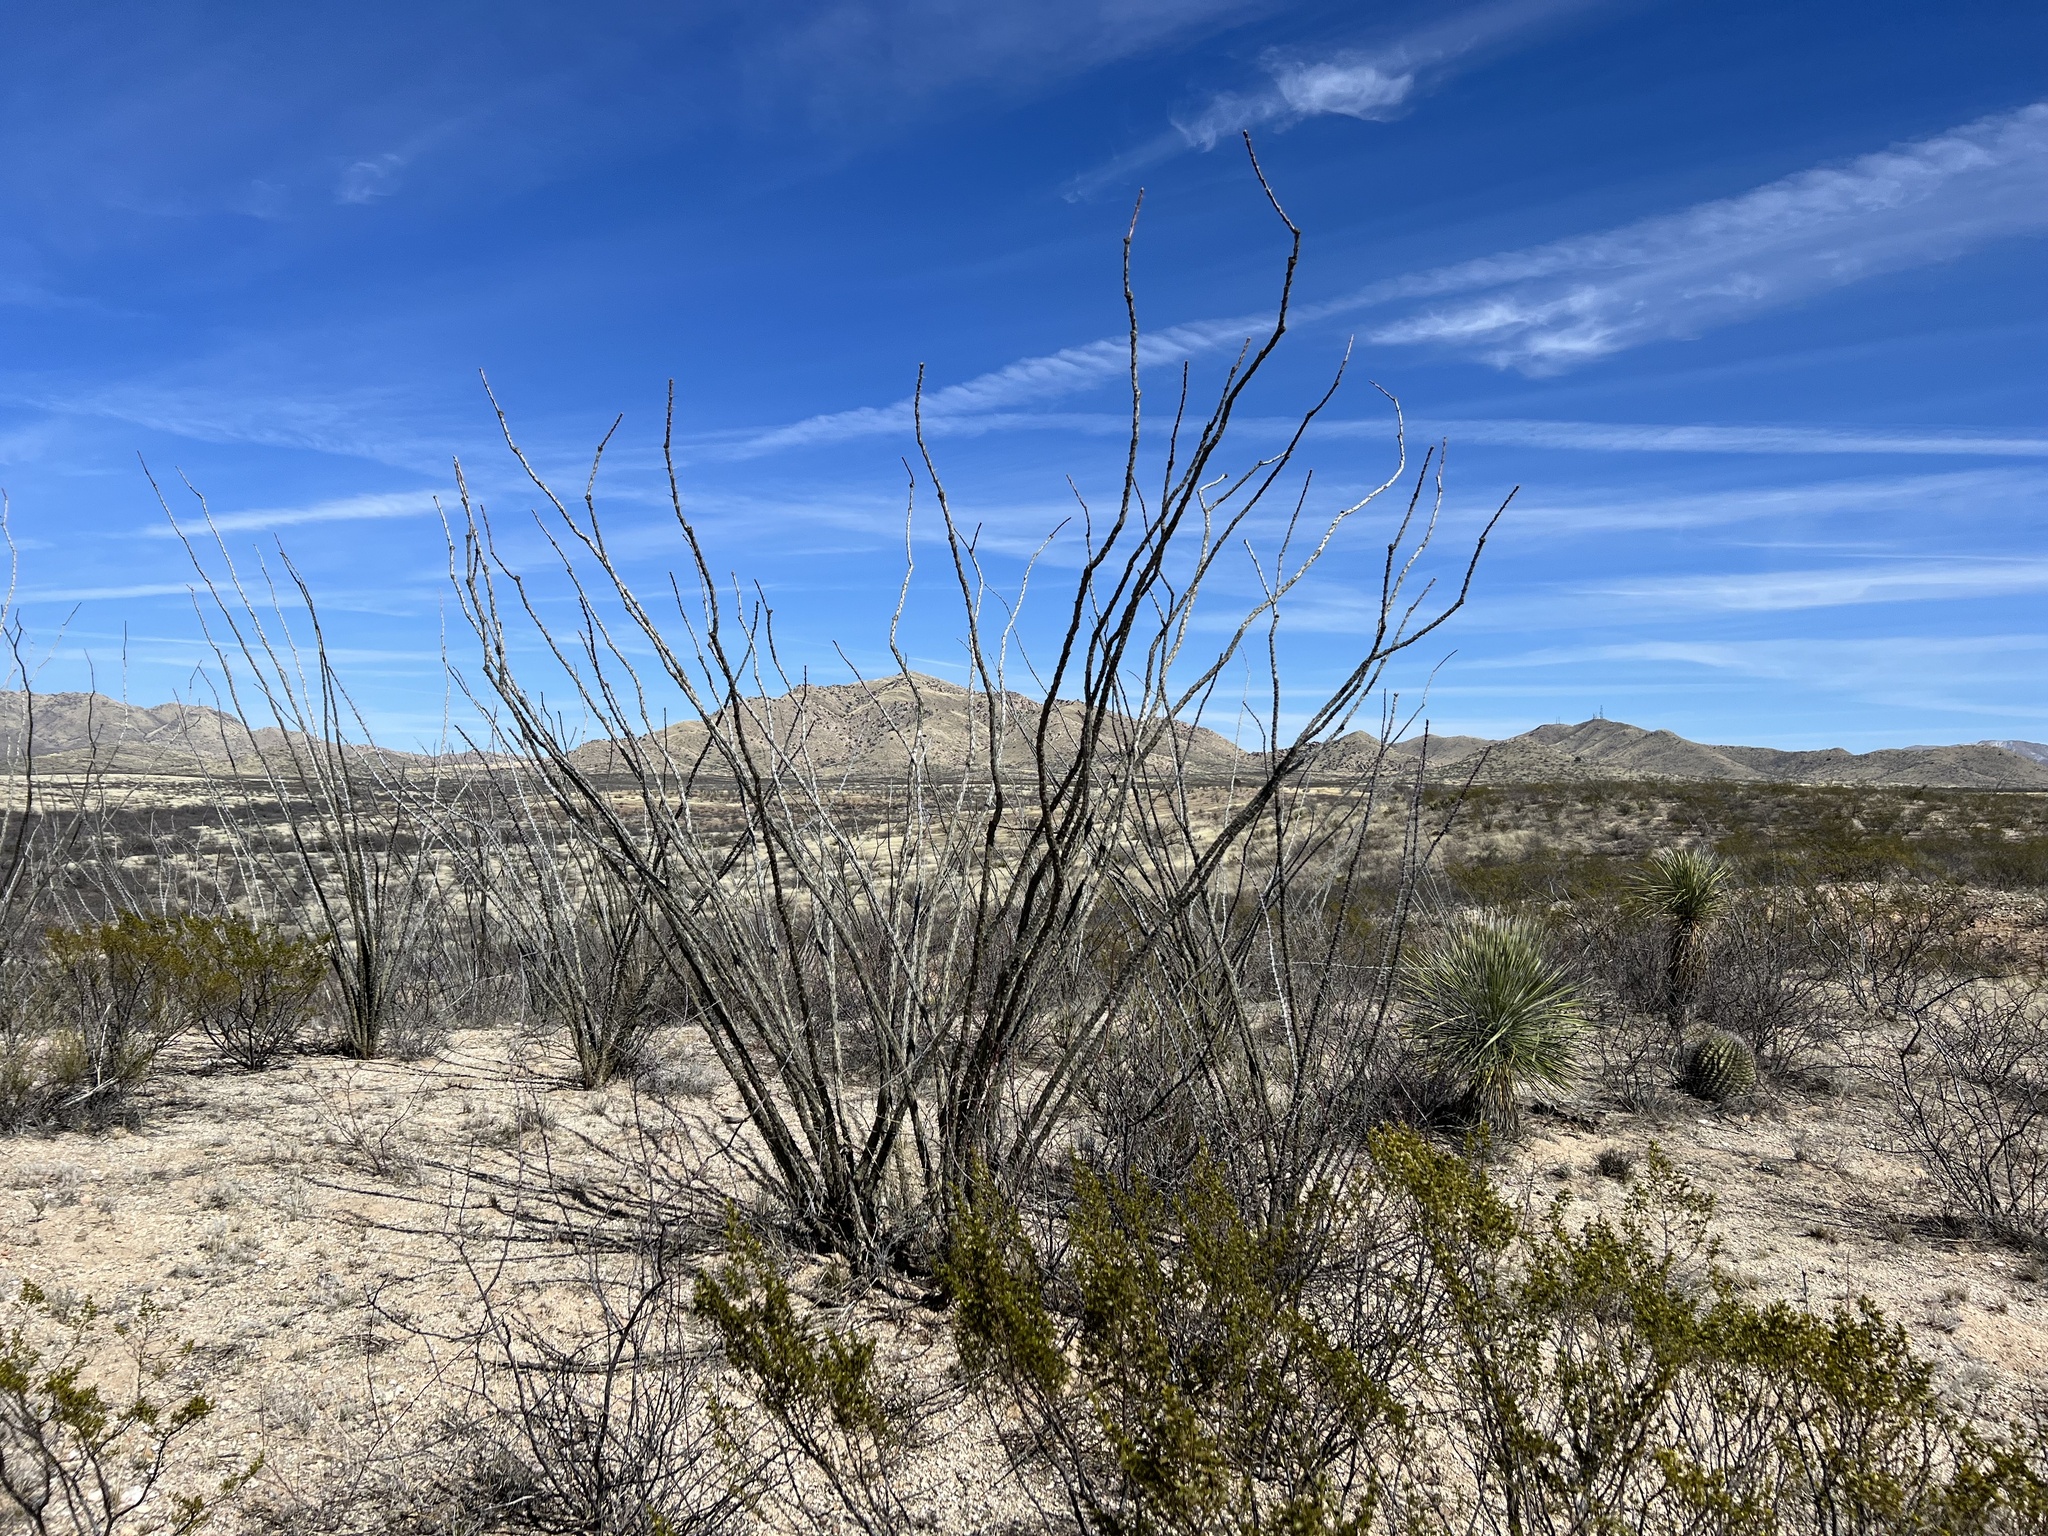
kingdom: Plantae
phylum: Tracheophyta
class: Magnoliopsida
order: Ericales
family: Fouquieriaceae
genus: Fouquieria
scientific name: Fouquieria splendens
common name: Vine-cactus
